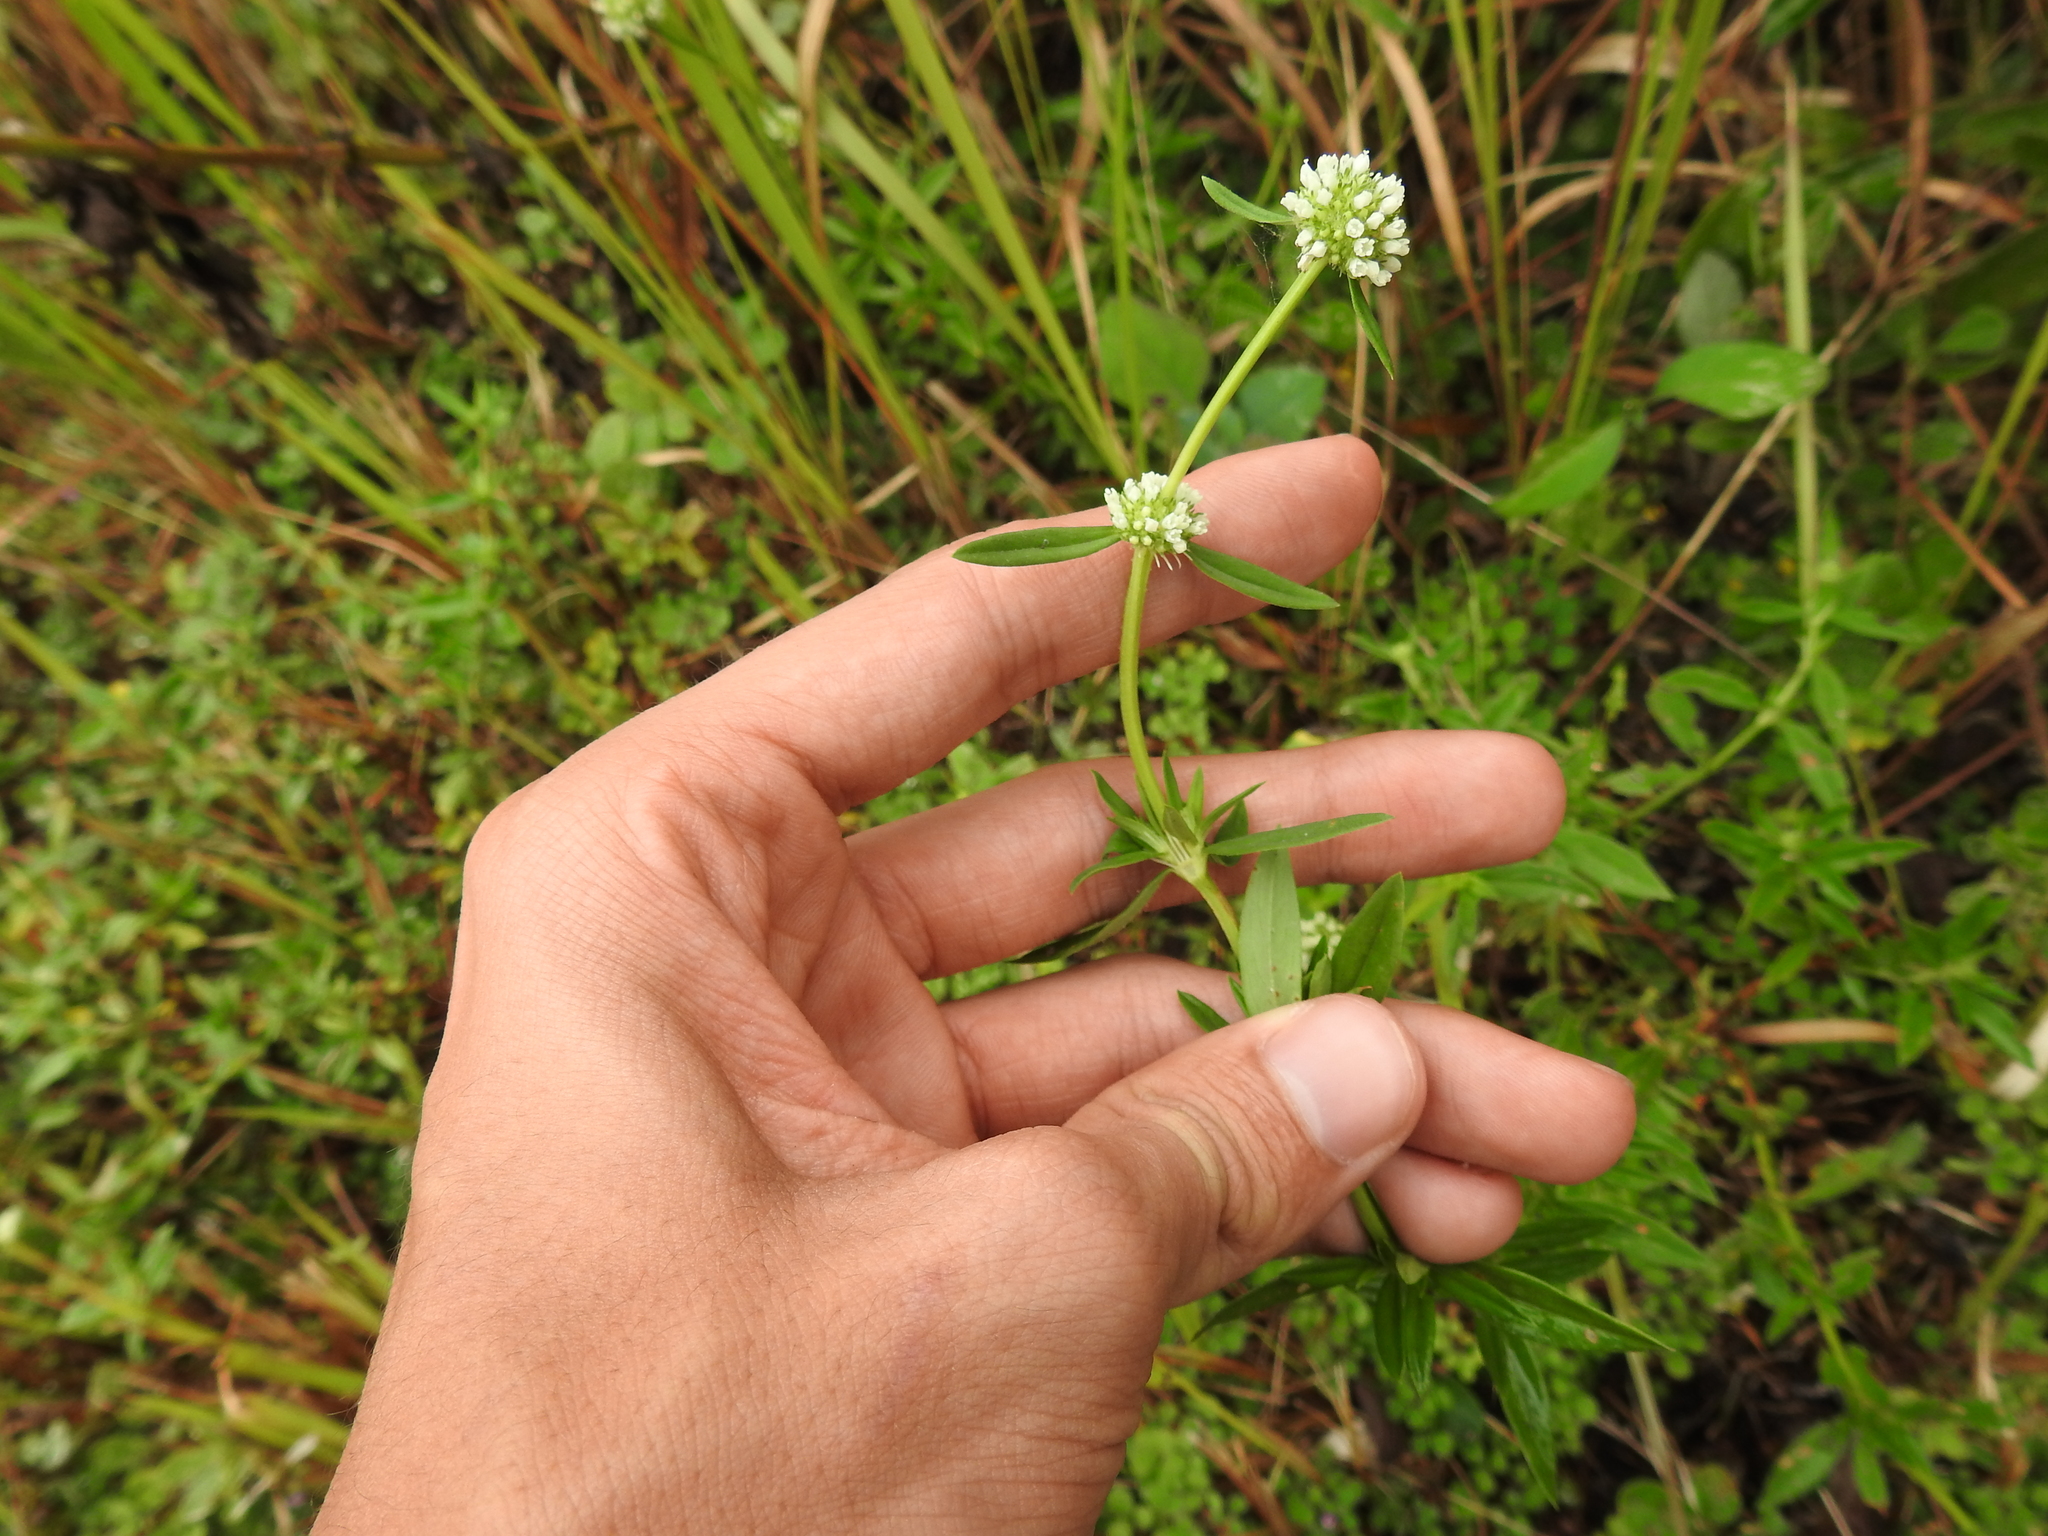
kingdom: Plantae
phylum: Tracheophyta
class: Magnoliopsida
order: Gentianales
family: Rubiaceae
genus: Spermacoce
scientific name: Spermacoce verticillata
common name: Shrubby false buttonweed
